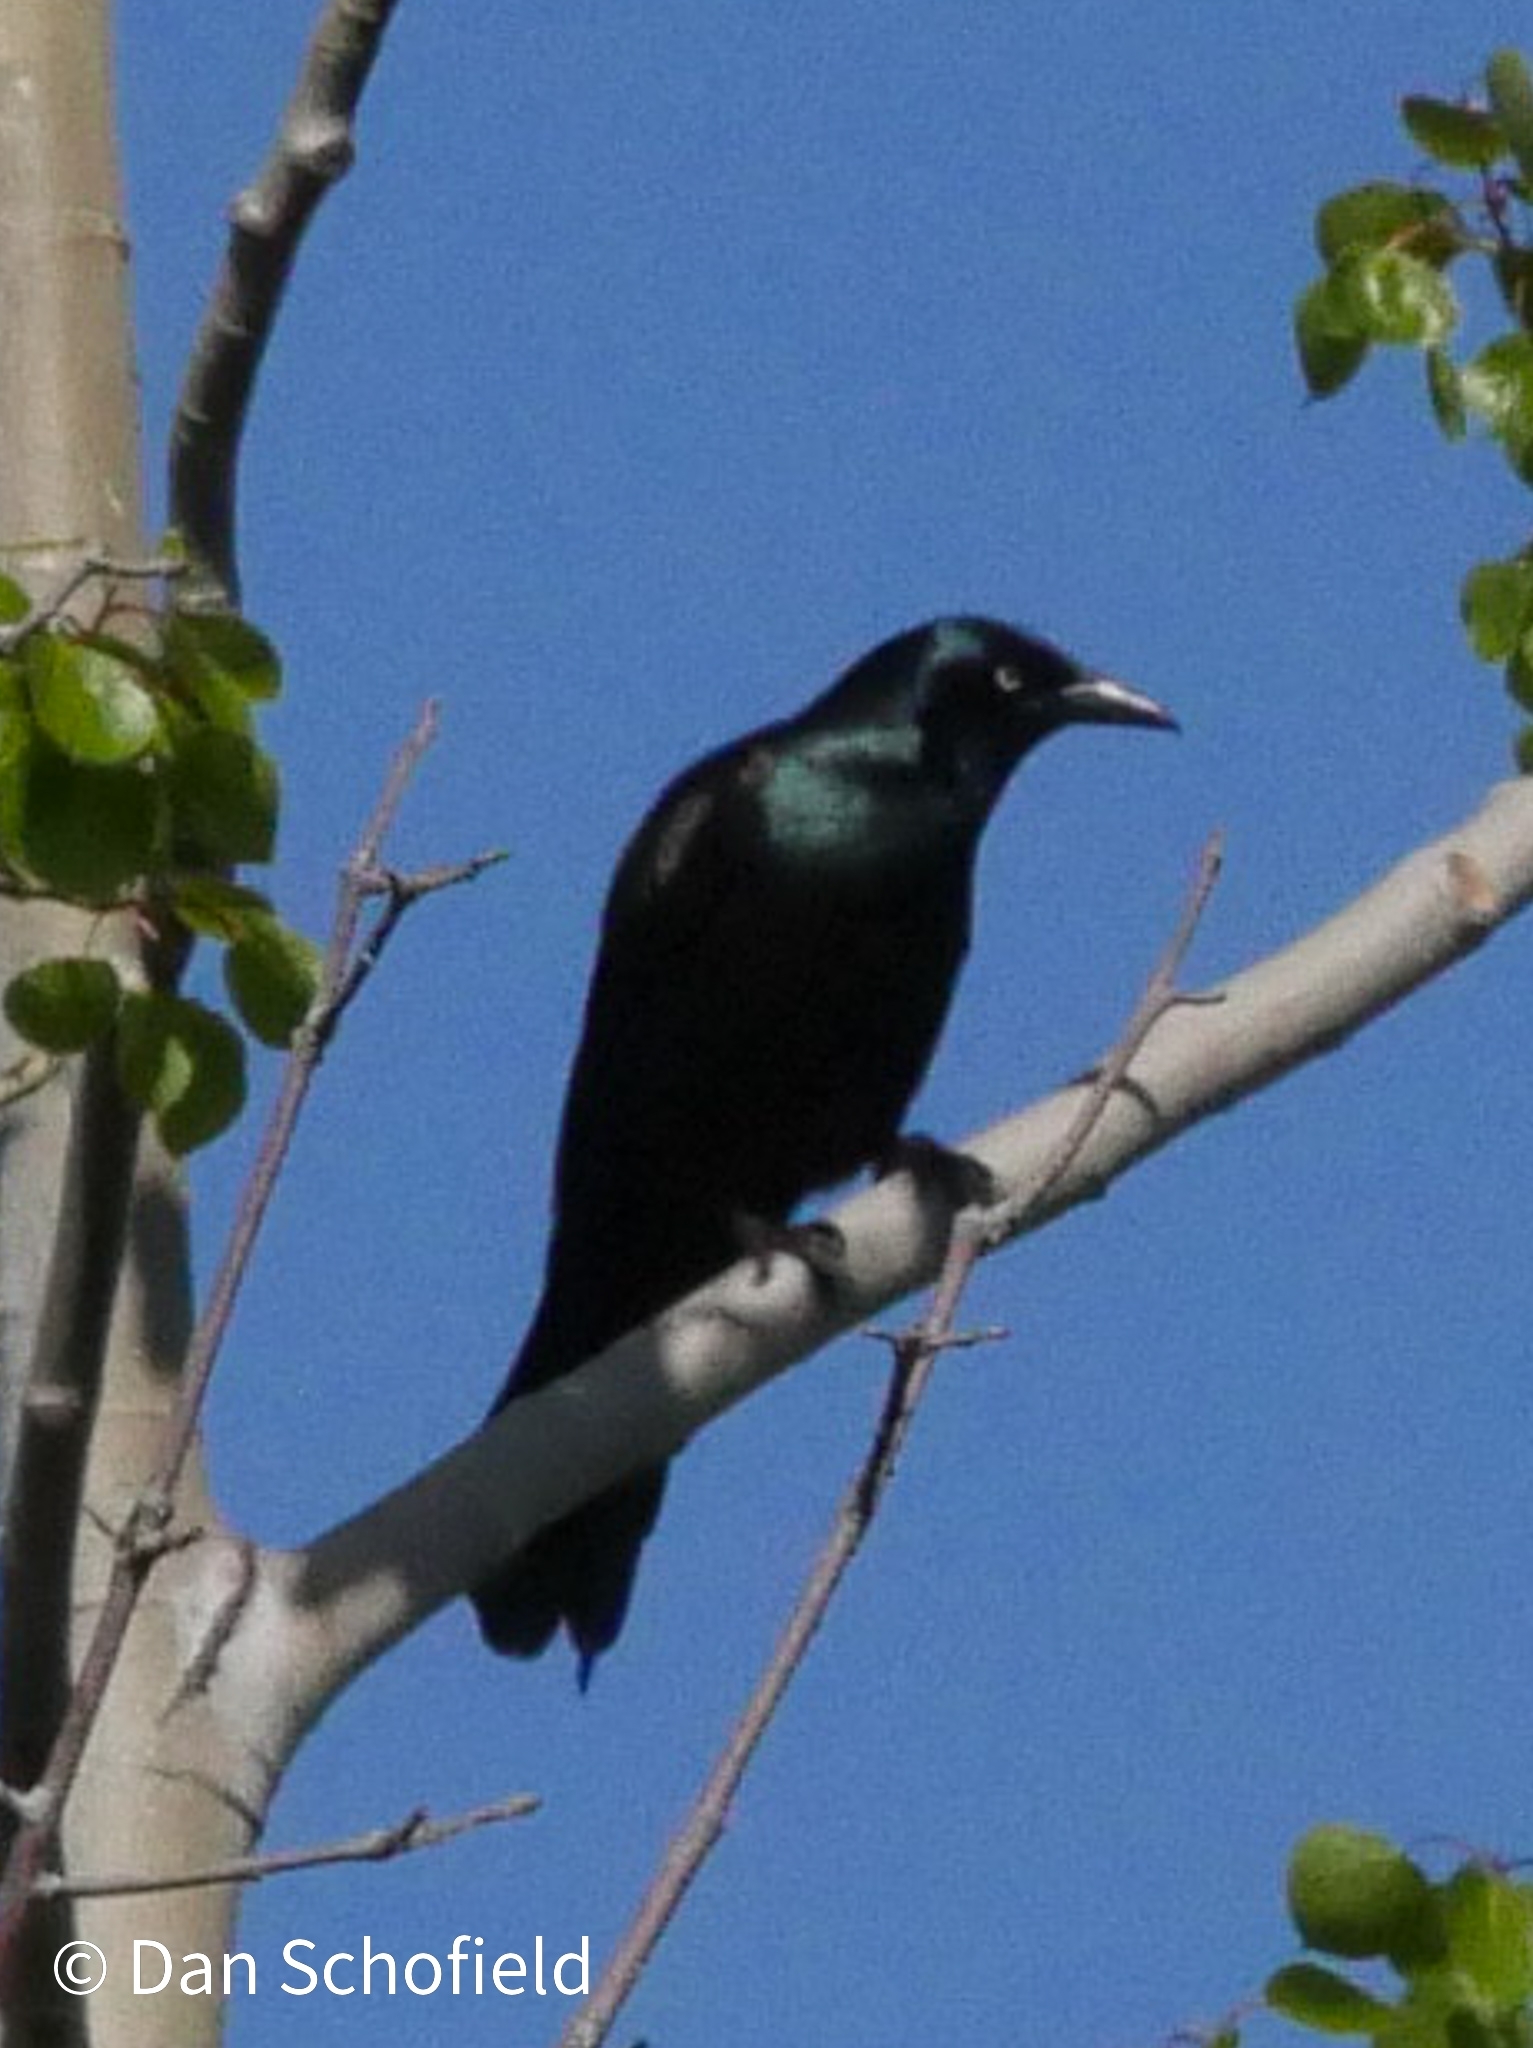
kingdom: Animalia
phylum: Chordata
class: Aves
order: Passeriformes
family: Icteridae
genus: Quiscalus
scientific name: Quiscalus quiscula
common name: Common grackle
